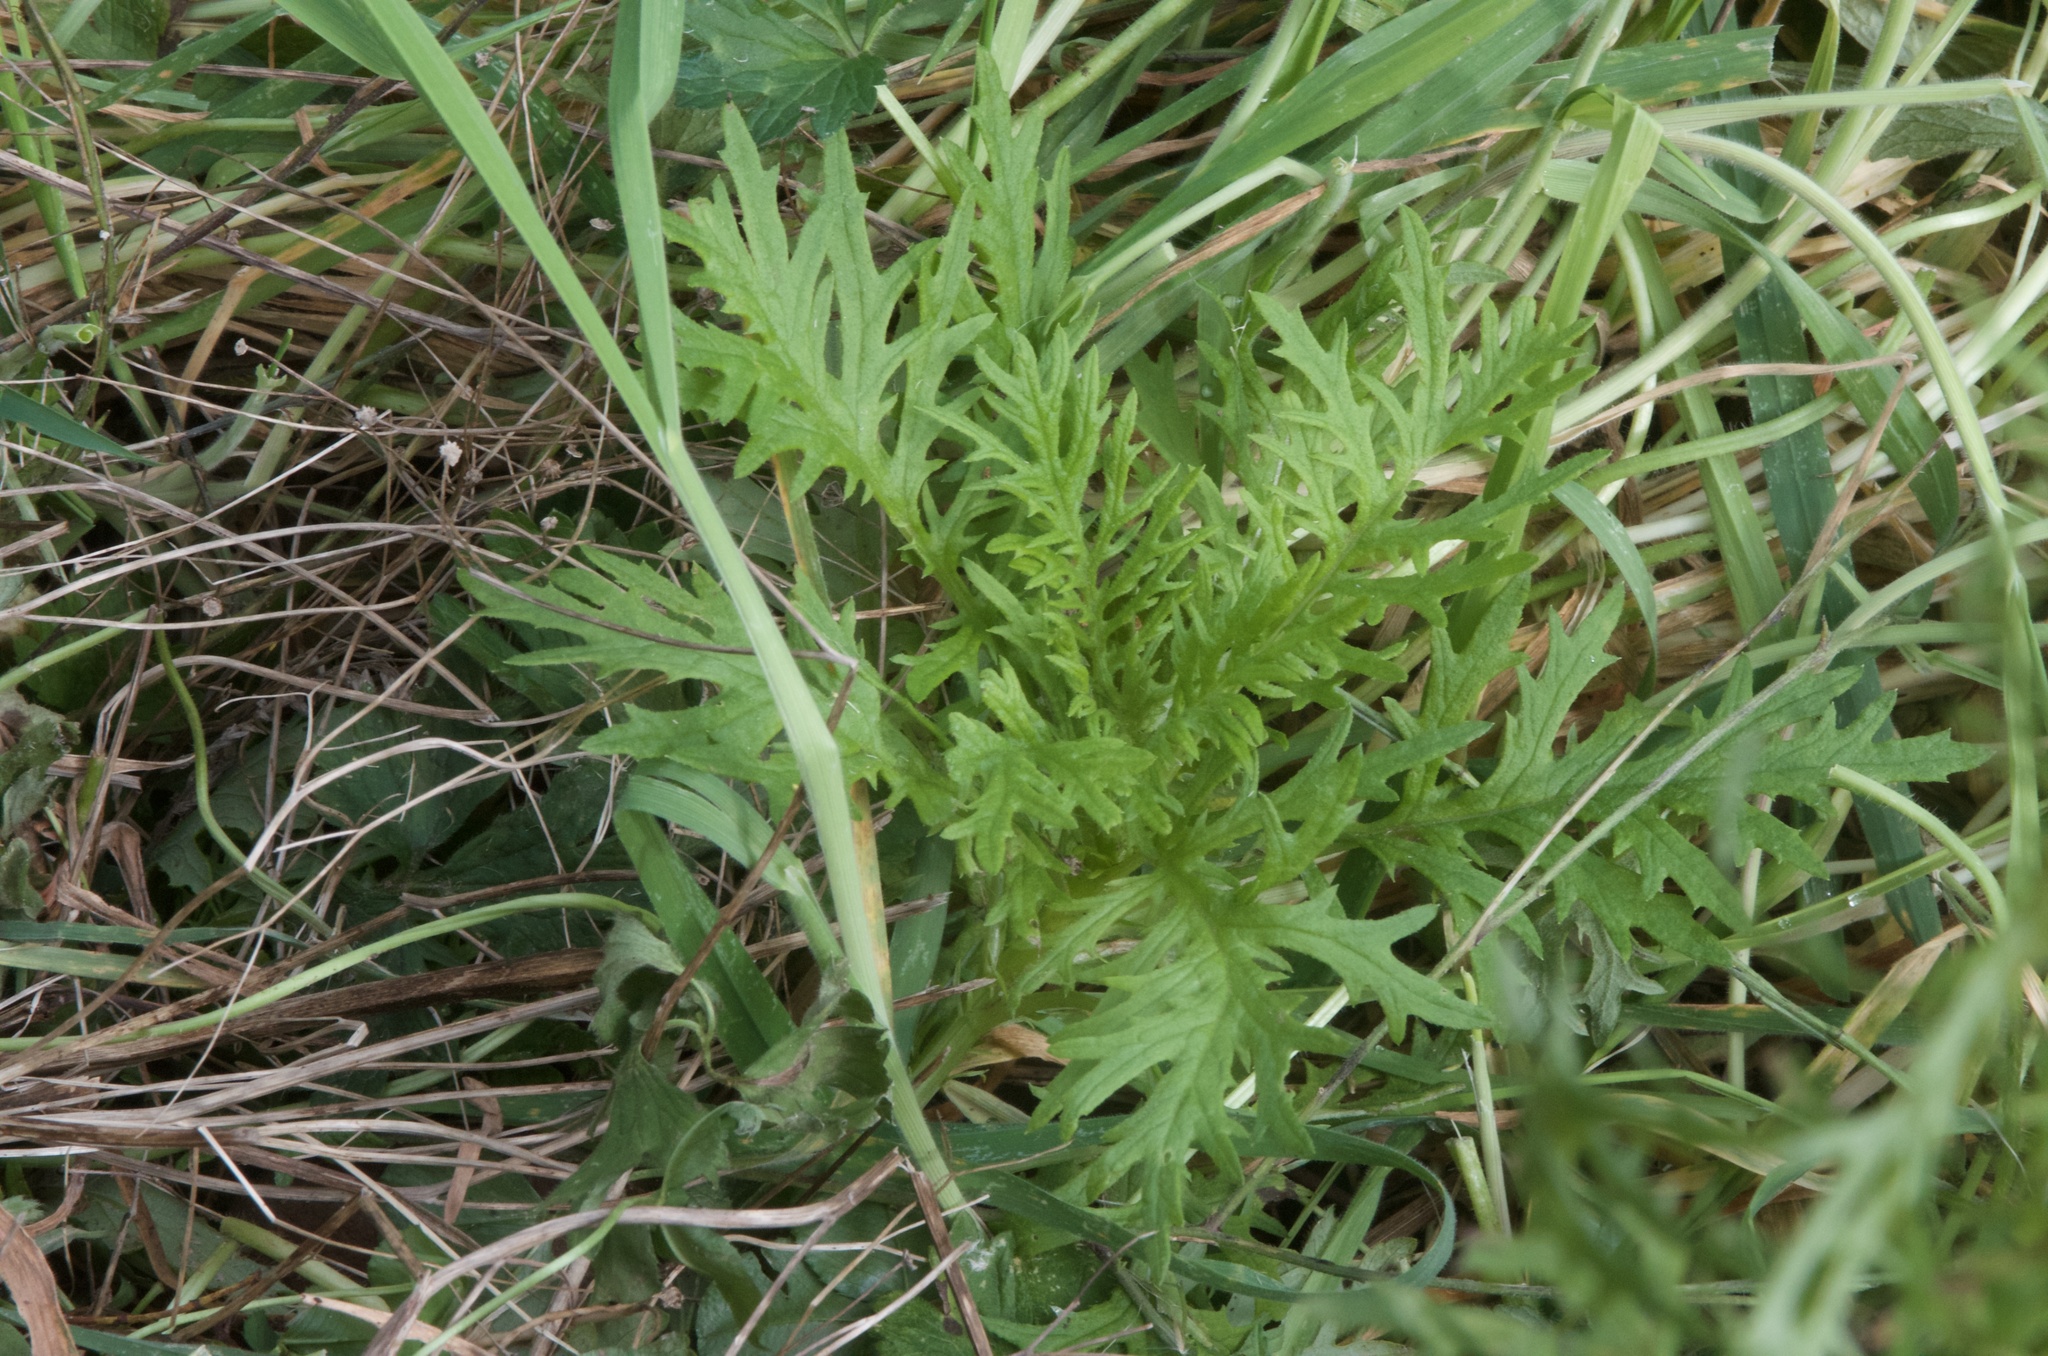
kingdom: Plantae
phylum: Tracheophyta
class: Magnoliopsida
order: Asterales
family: Asteraceae
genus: Senecio
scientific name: Senecio bipinnatisectus
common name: Australian fireweed
